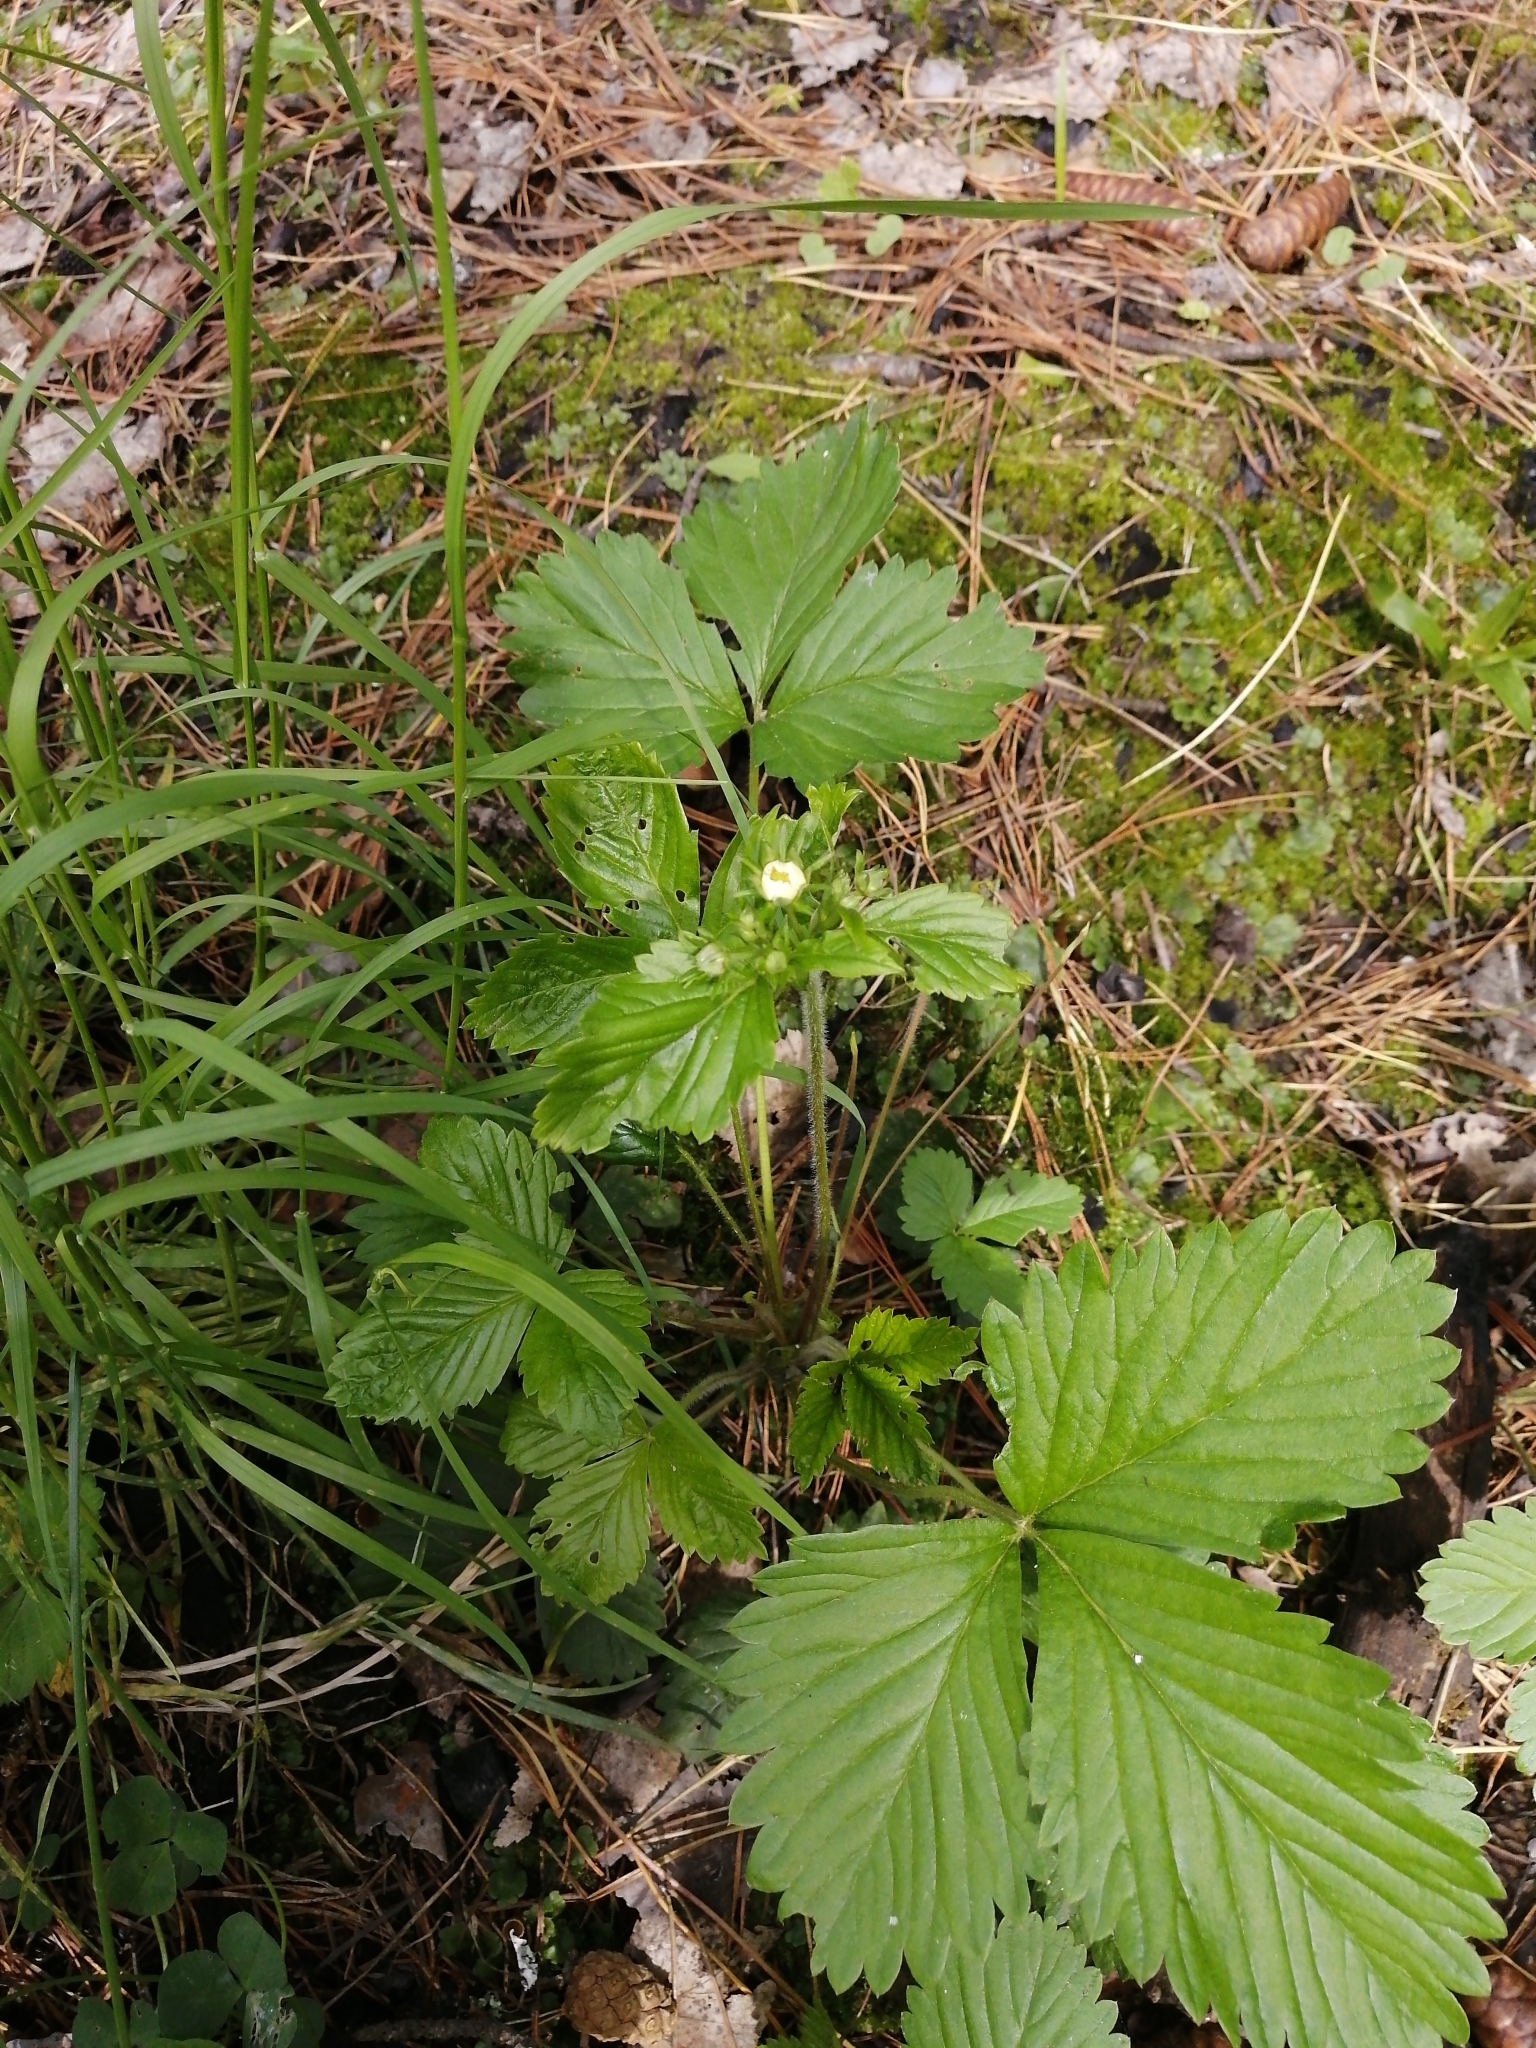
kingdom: Plantae
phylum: Tracheophyta
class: Magnoliopsida
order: Rosales
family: Rosaceae
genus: Fragaria
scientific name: Fragaria vesca
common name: Wild strawberry
